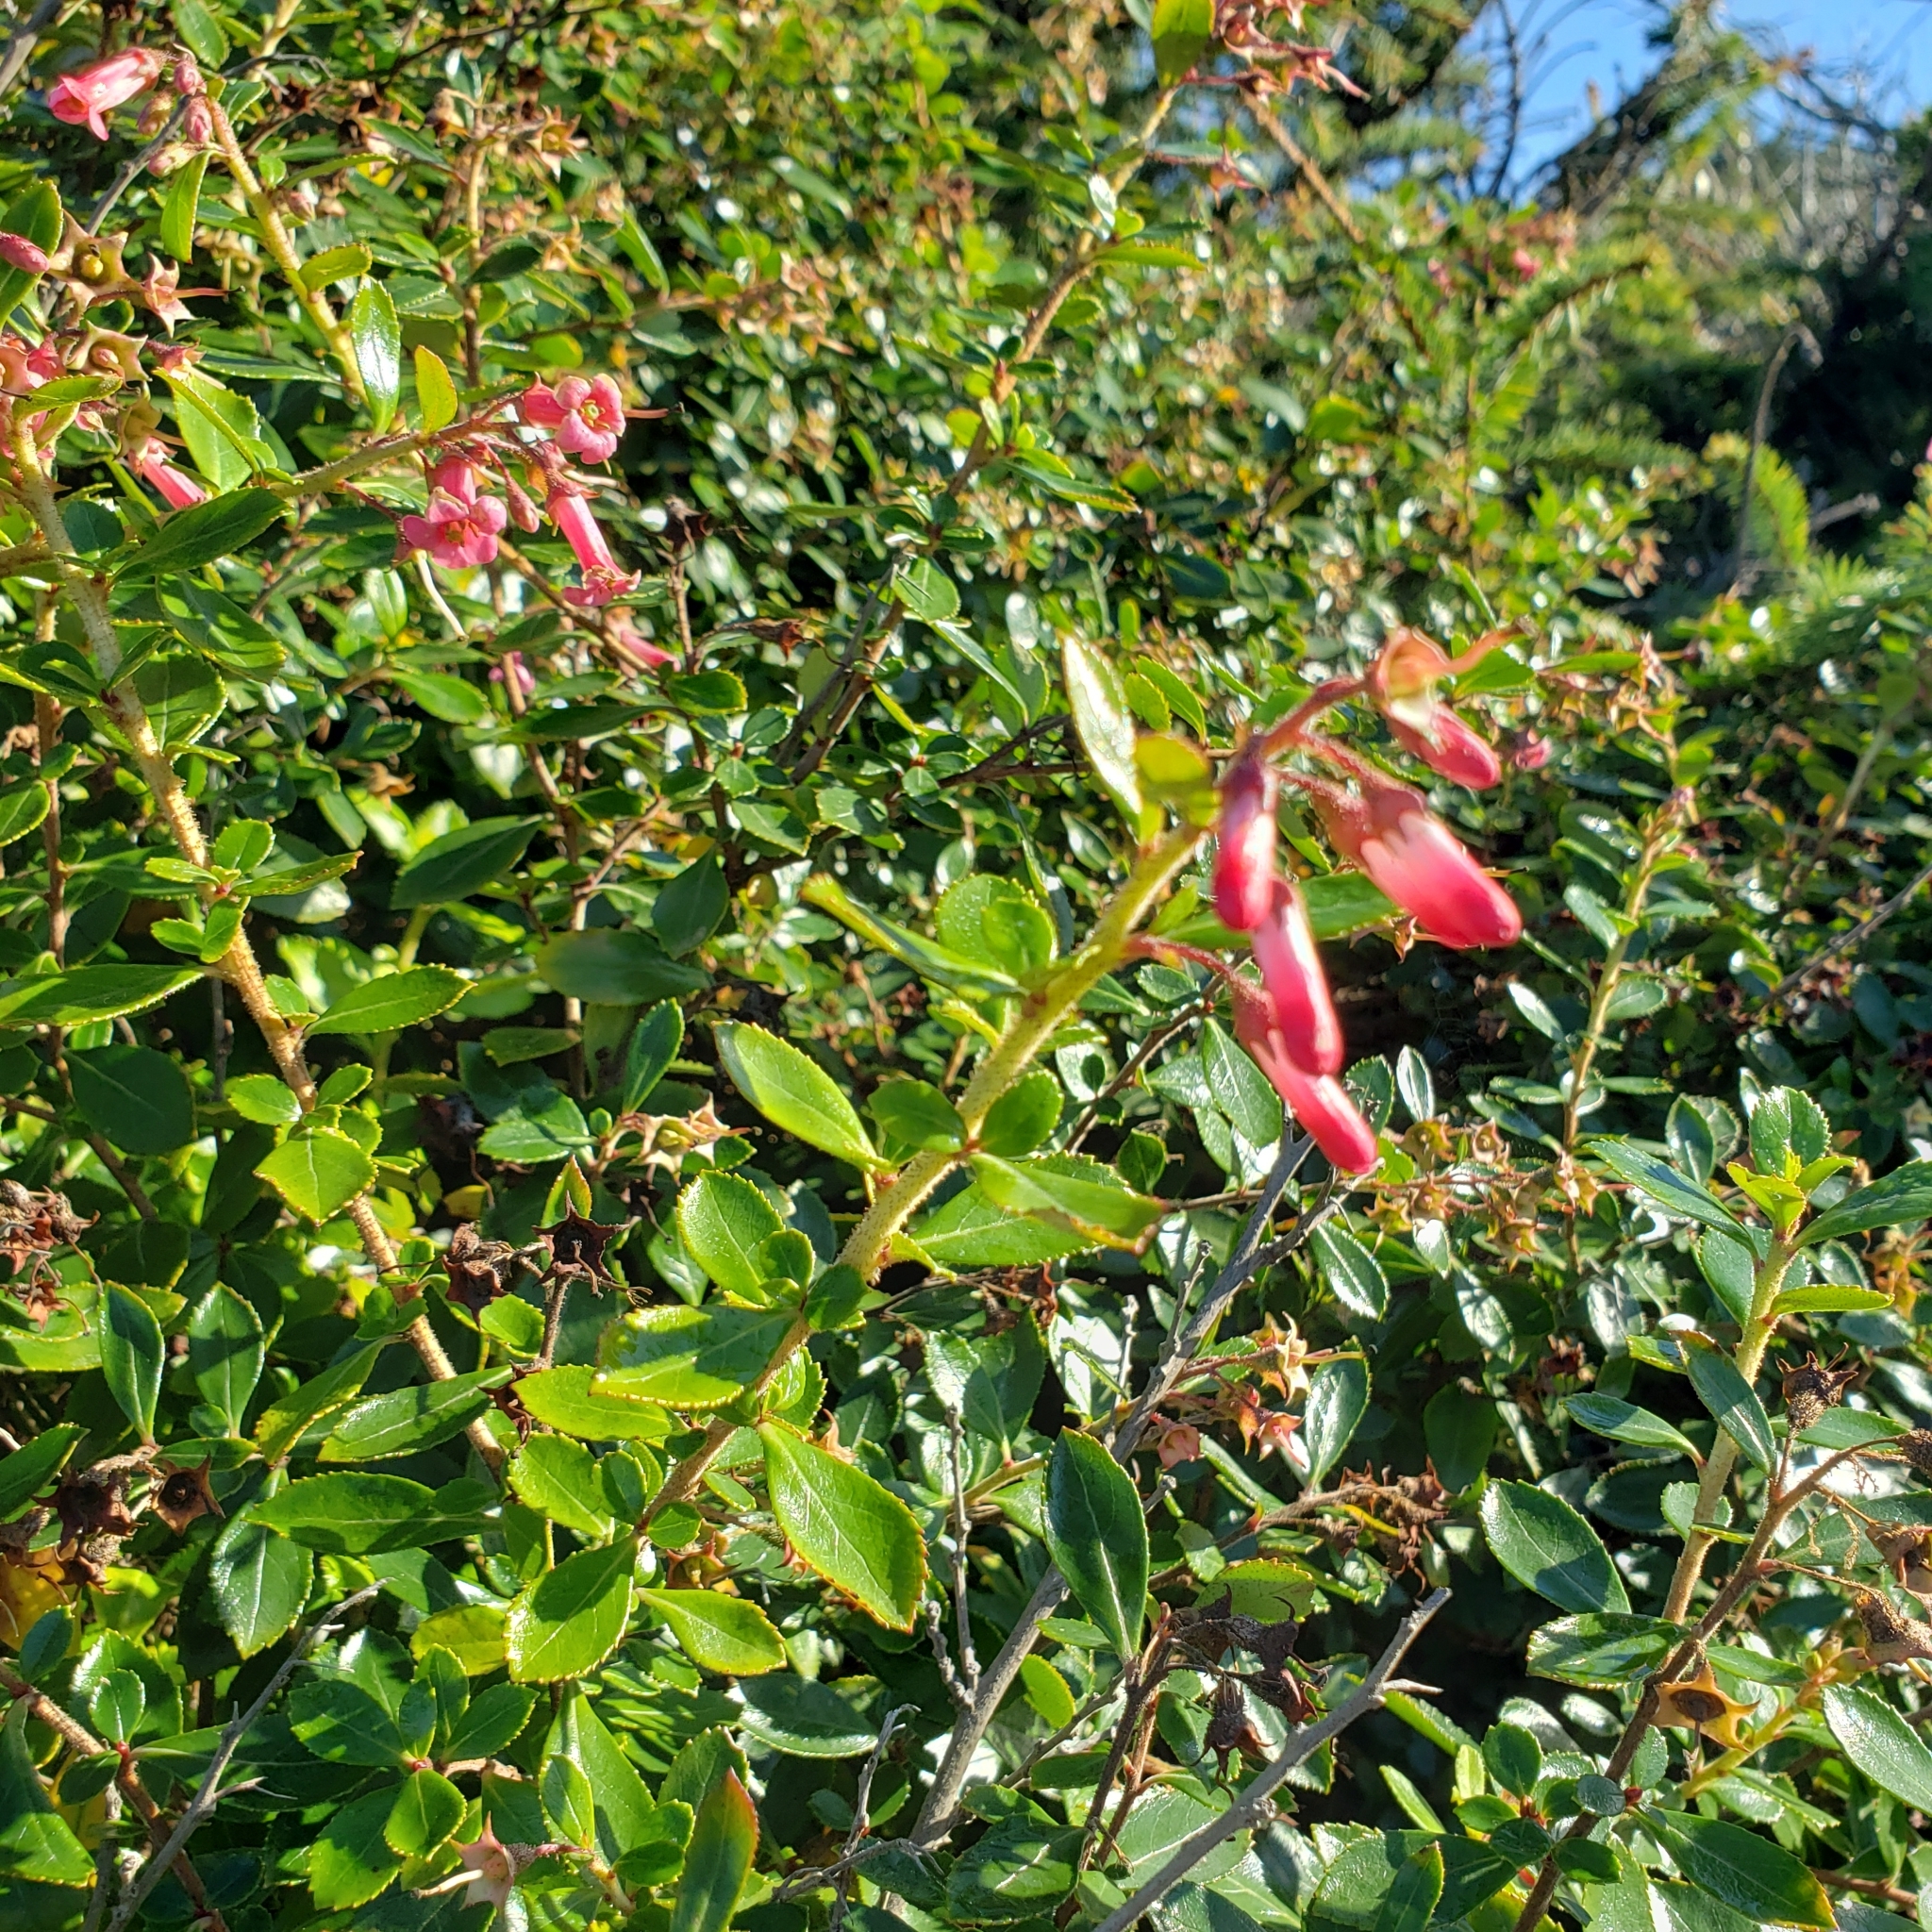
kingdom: Plantae
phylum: Tracheophyta
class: Magnoliopsida
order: Escalloniales
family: Escalloniaceae
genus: Escallonia
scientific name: Escallonia rubra
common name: Redclaws
